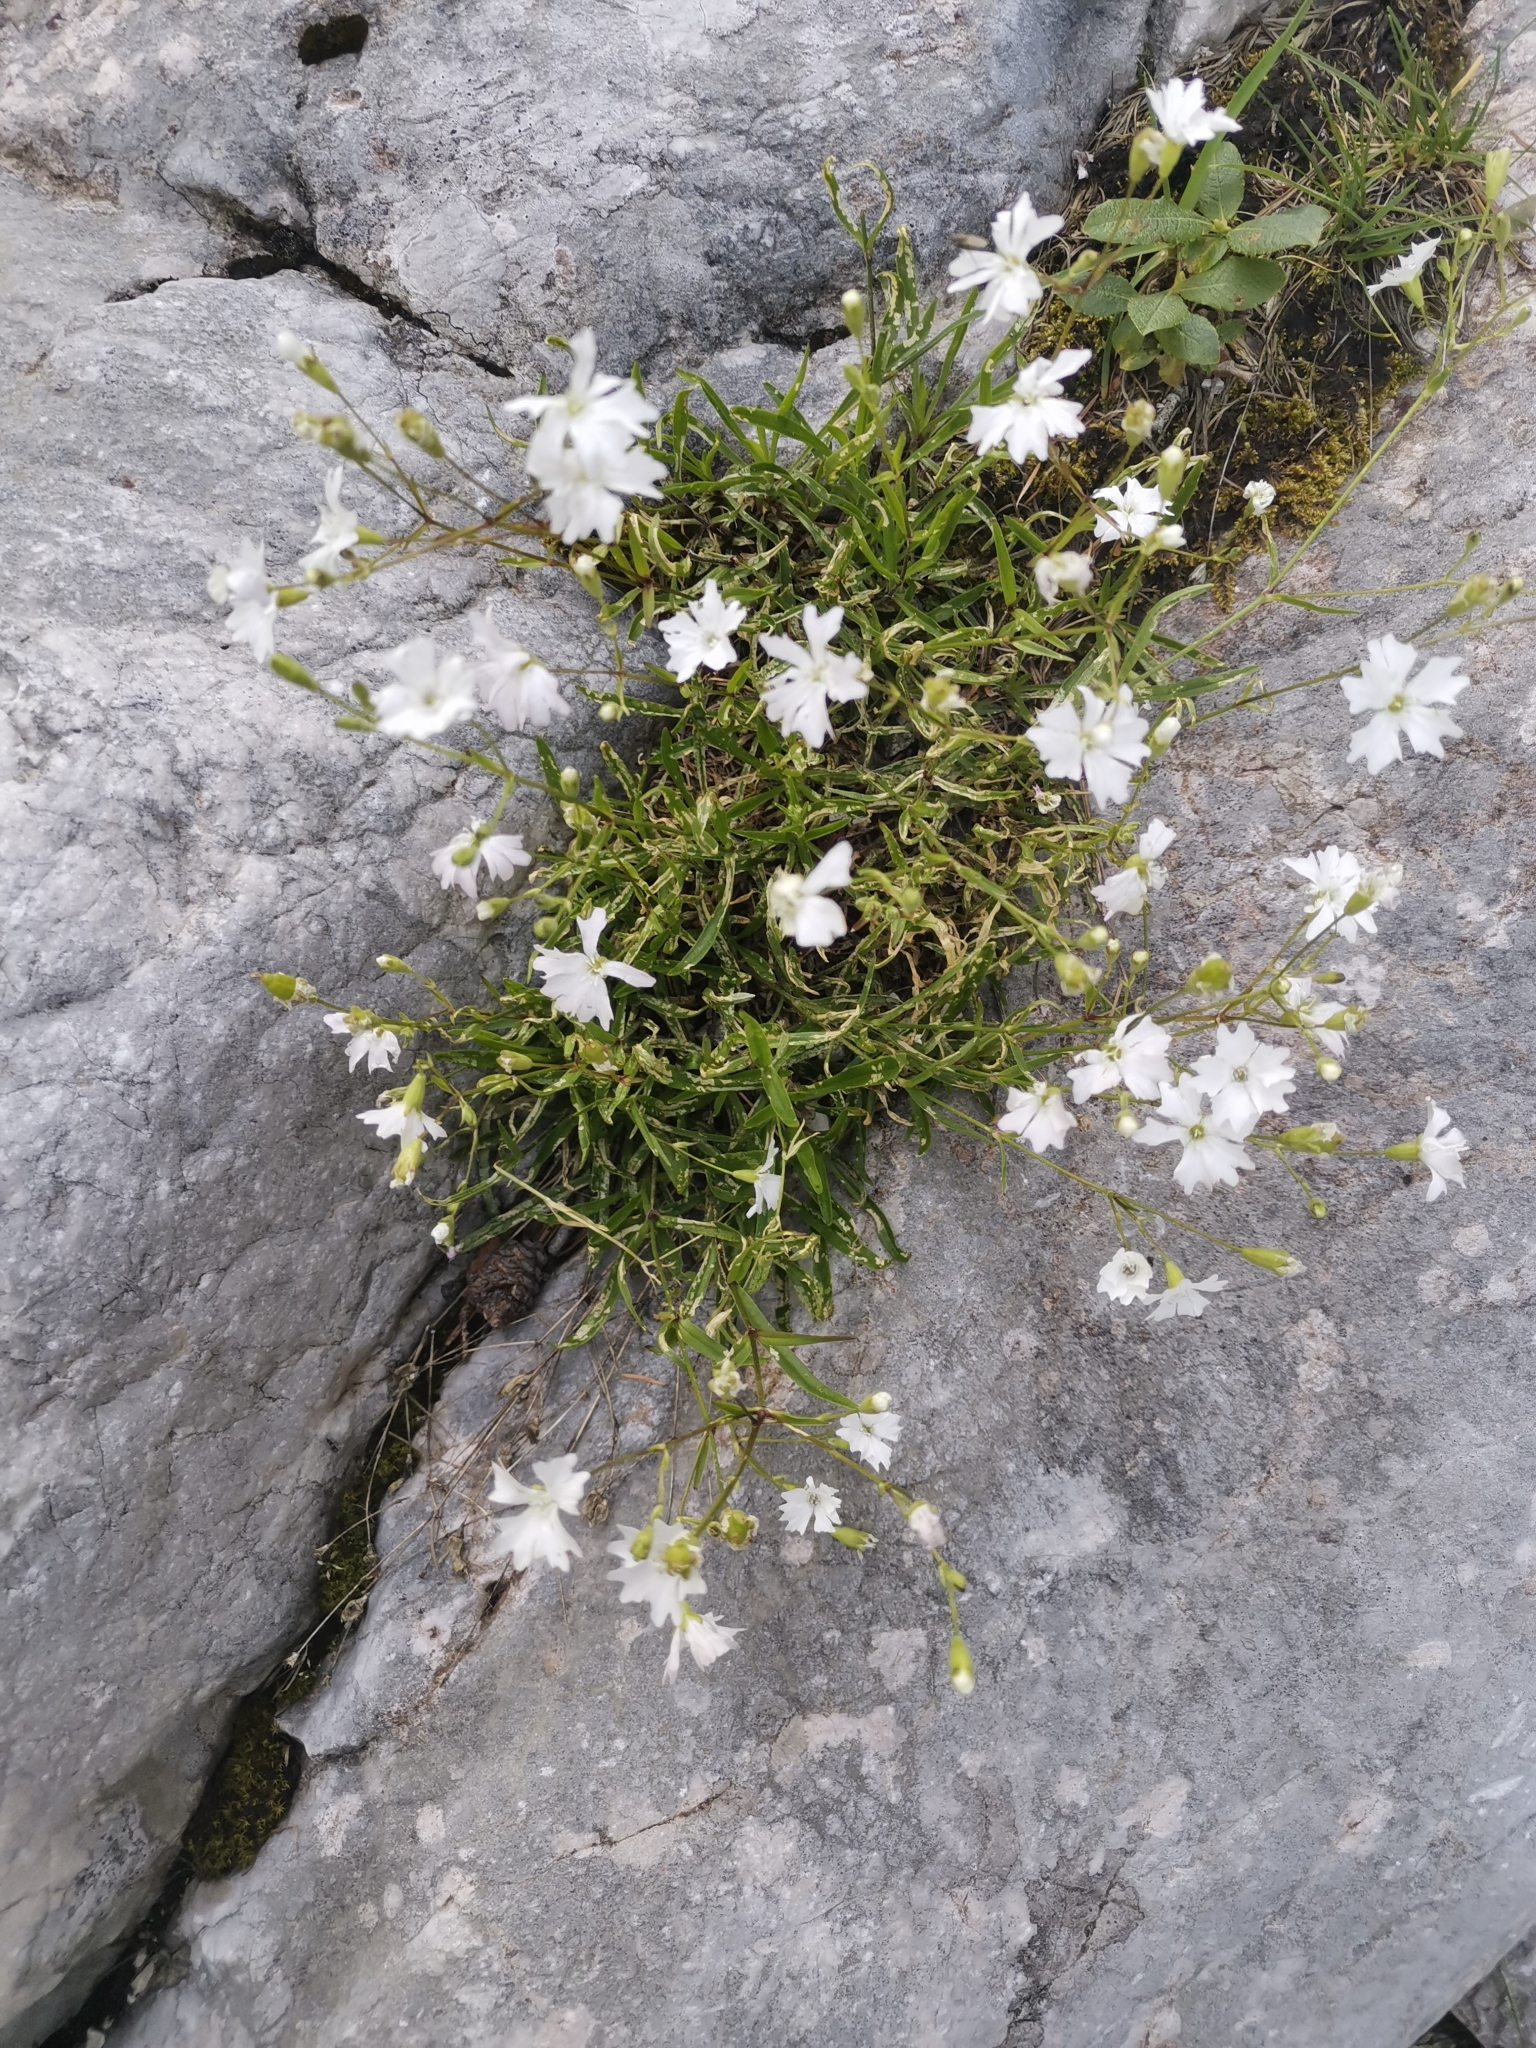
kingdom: Plantae
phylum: Tracheophyta
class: Magnoliopsida
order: Caryophyllales
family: Caryophyllaceae
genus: Heliosperma
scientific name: Heliosperma alpestre
